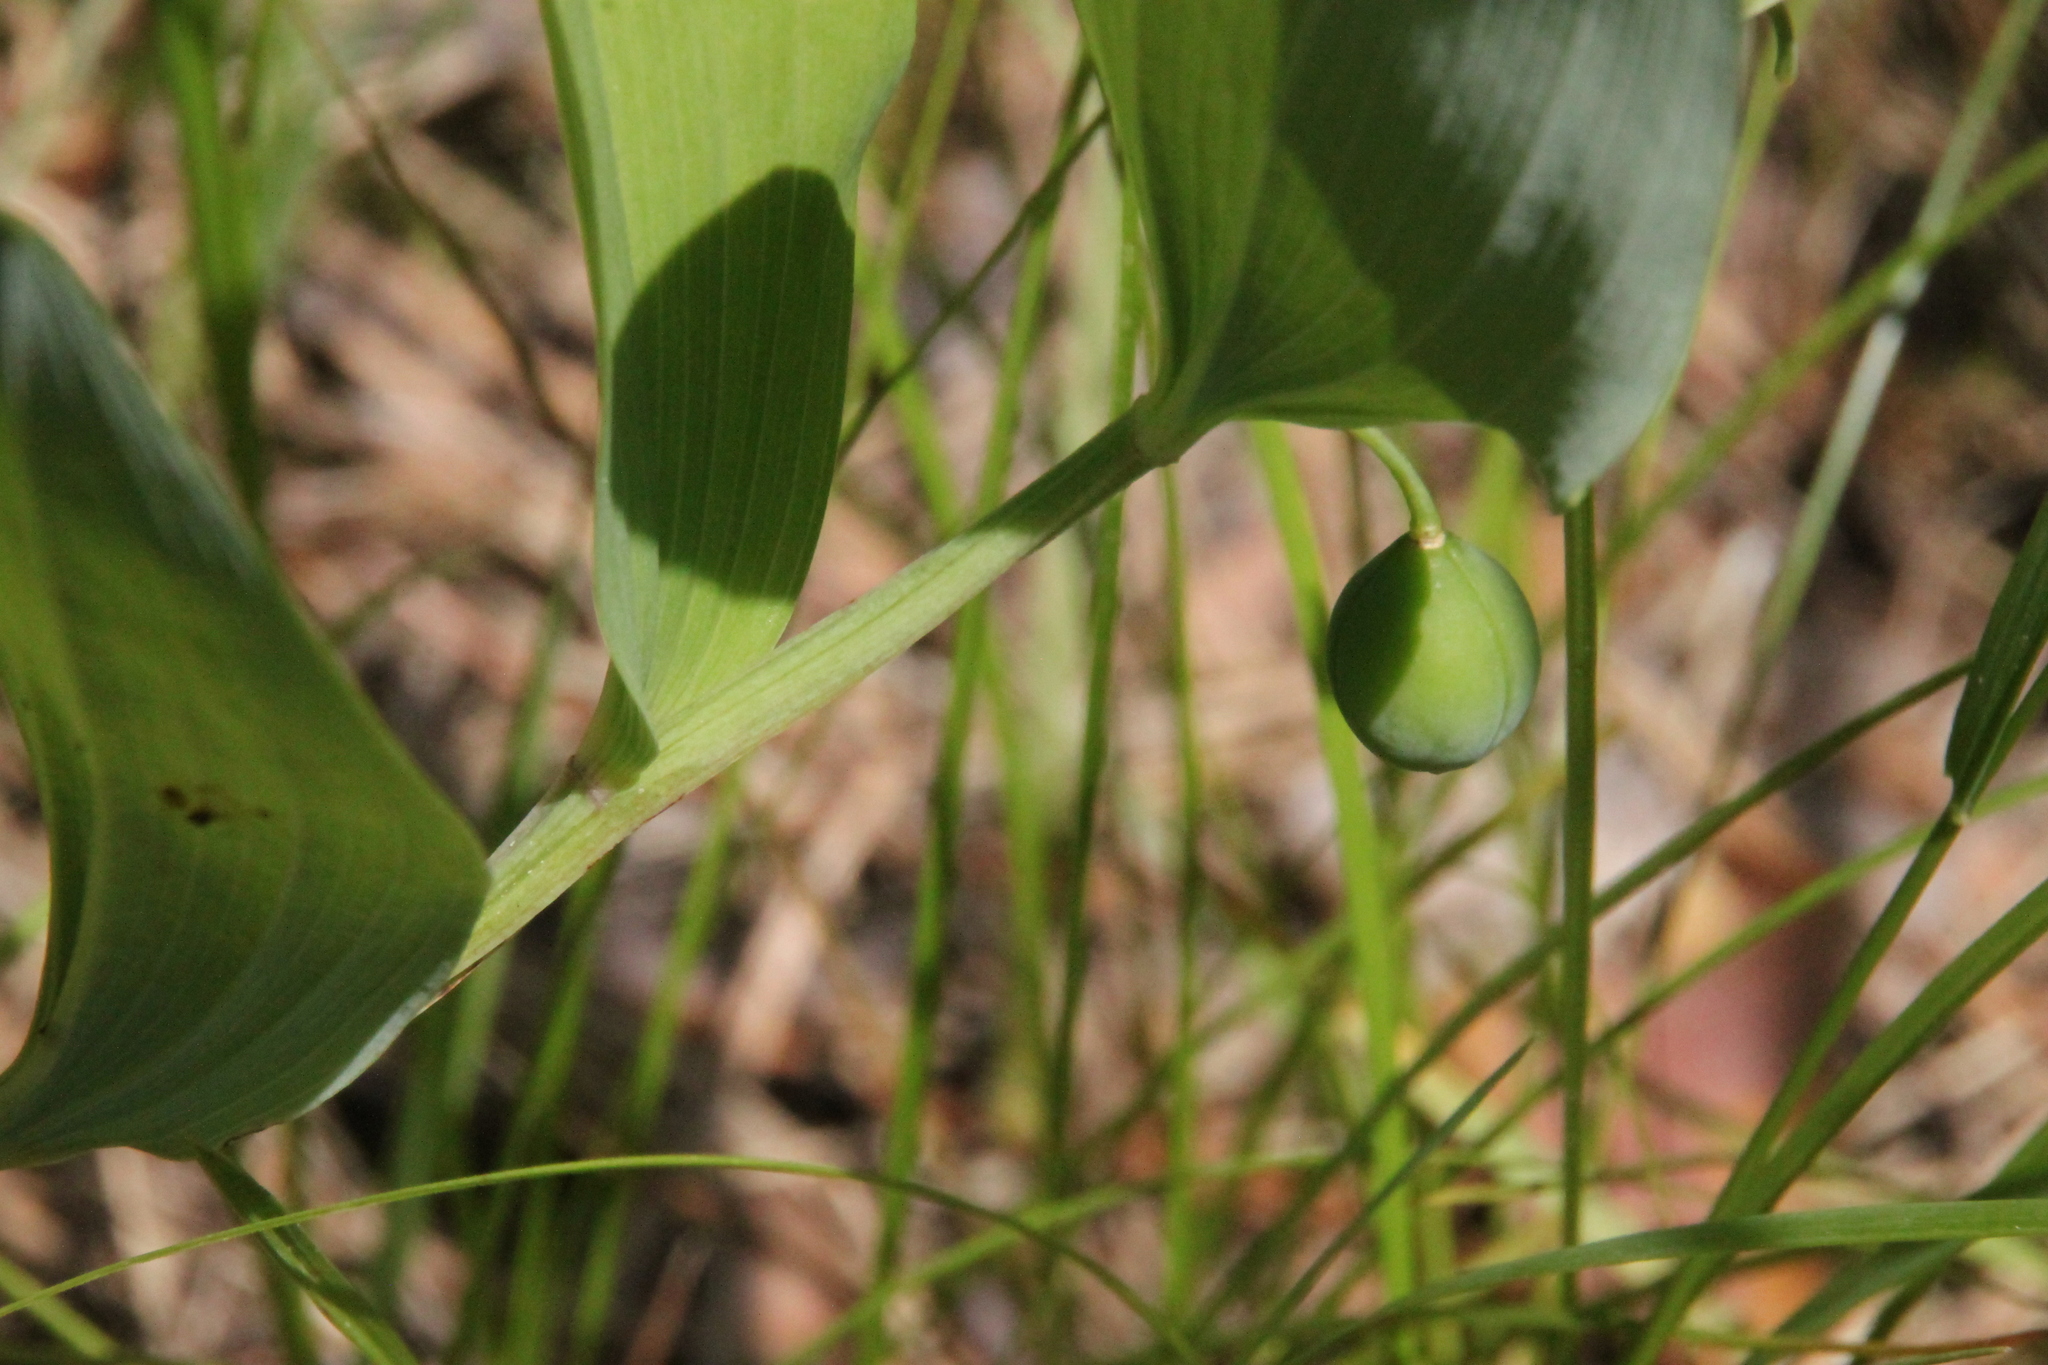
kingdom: Plantae
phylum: Tracheophyta
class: Liliopsida
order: Asparagales
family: Asparagaceae
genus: Polygonatum
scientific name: Polygonatum odoratum
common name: Angular solomon's-seal
